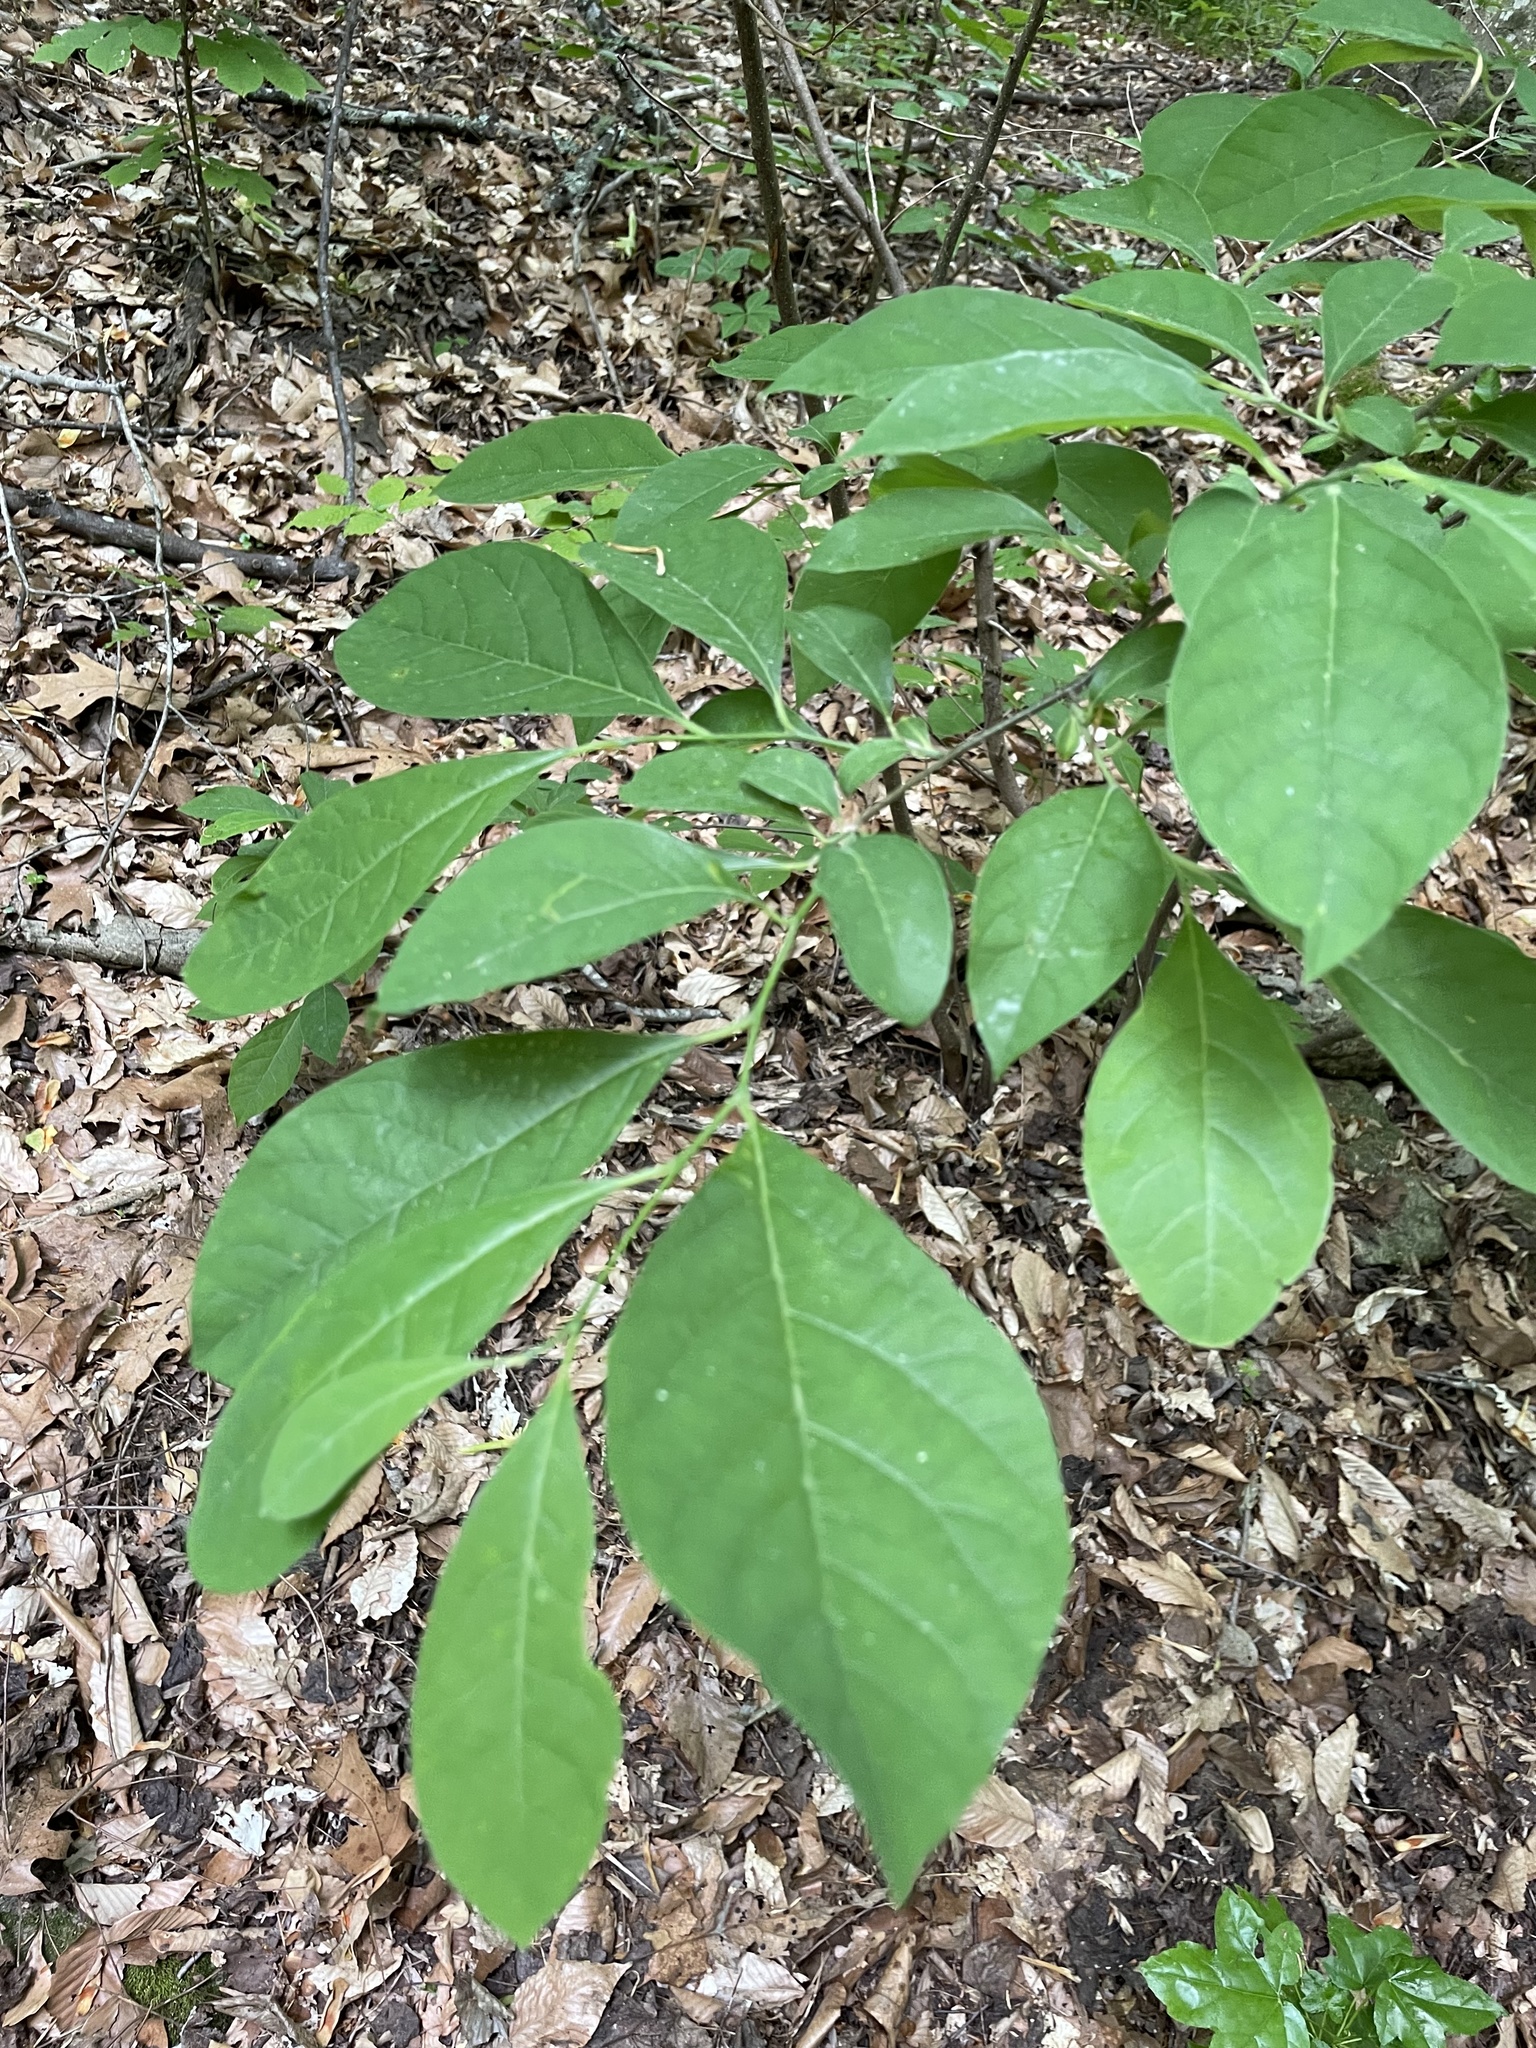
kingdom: Plantae
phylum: Tracheophyta
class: Magnoliopsida
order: Laurales
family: Lauraceae
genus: Lindera
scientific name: Lindera benzoin
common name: Spicebush
